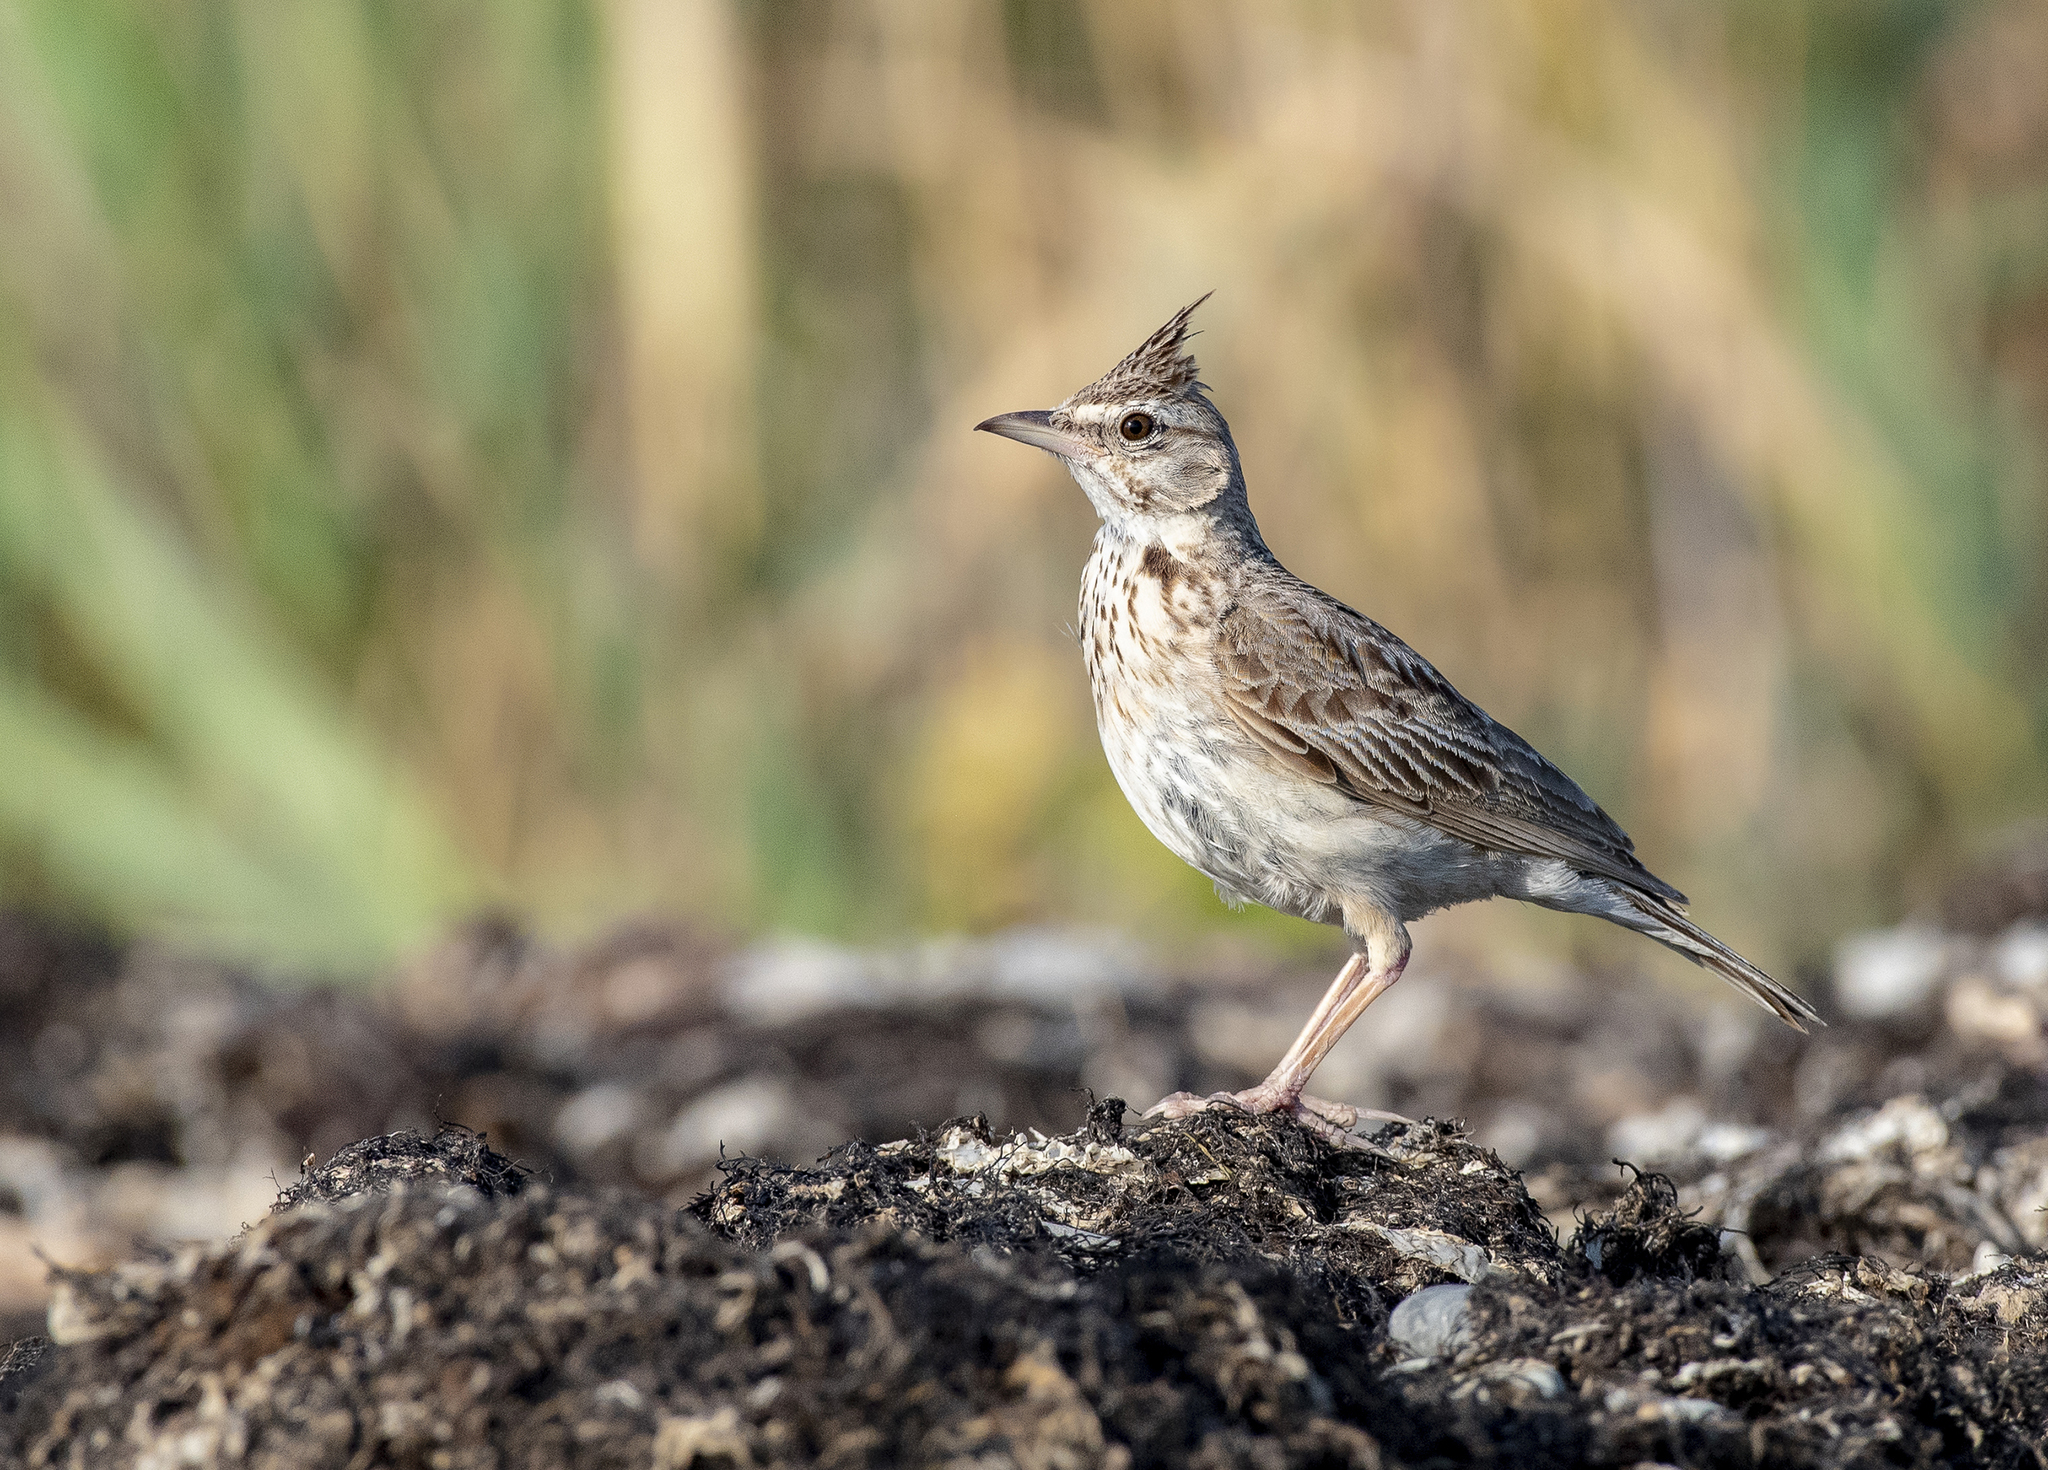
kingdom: Animalia
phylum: Chordata
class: Aves
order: Passeriformes
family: Alaudidae
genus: Galerida
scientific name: Galerida cristata
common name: Crested lark
